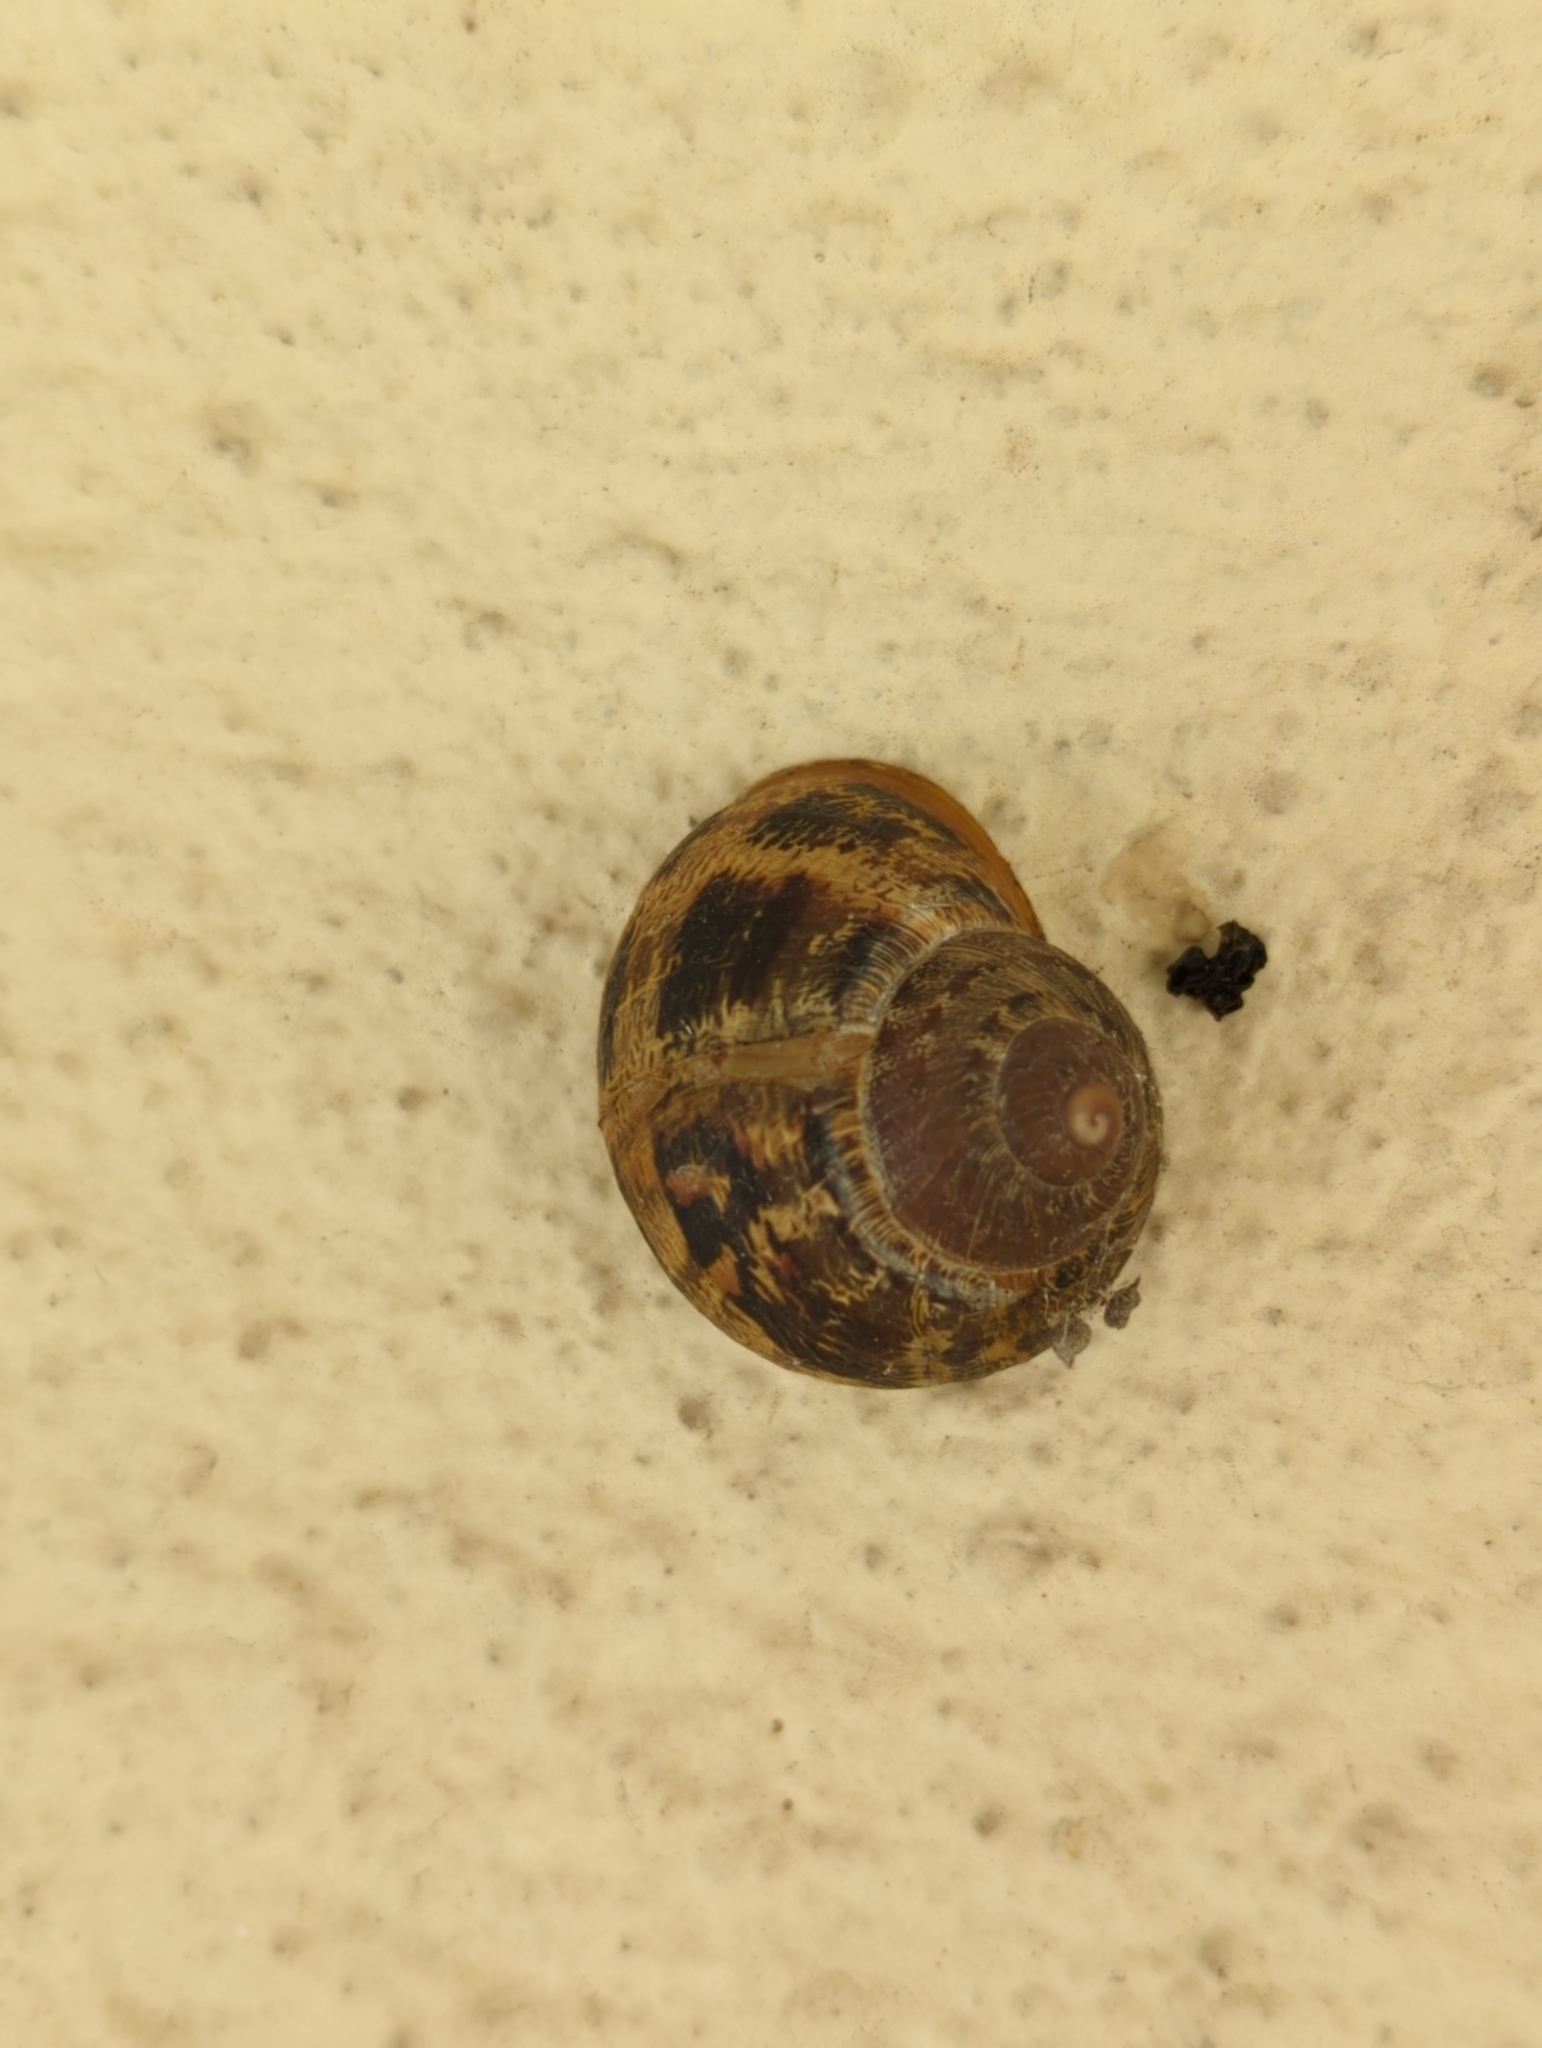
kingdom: Animalia
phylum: Mollusca
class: Gastropoda
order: Stylommatophora
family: Helicidae
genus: Cornu
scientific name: Cornu aspersum
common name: Brown garden snail
